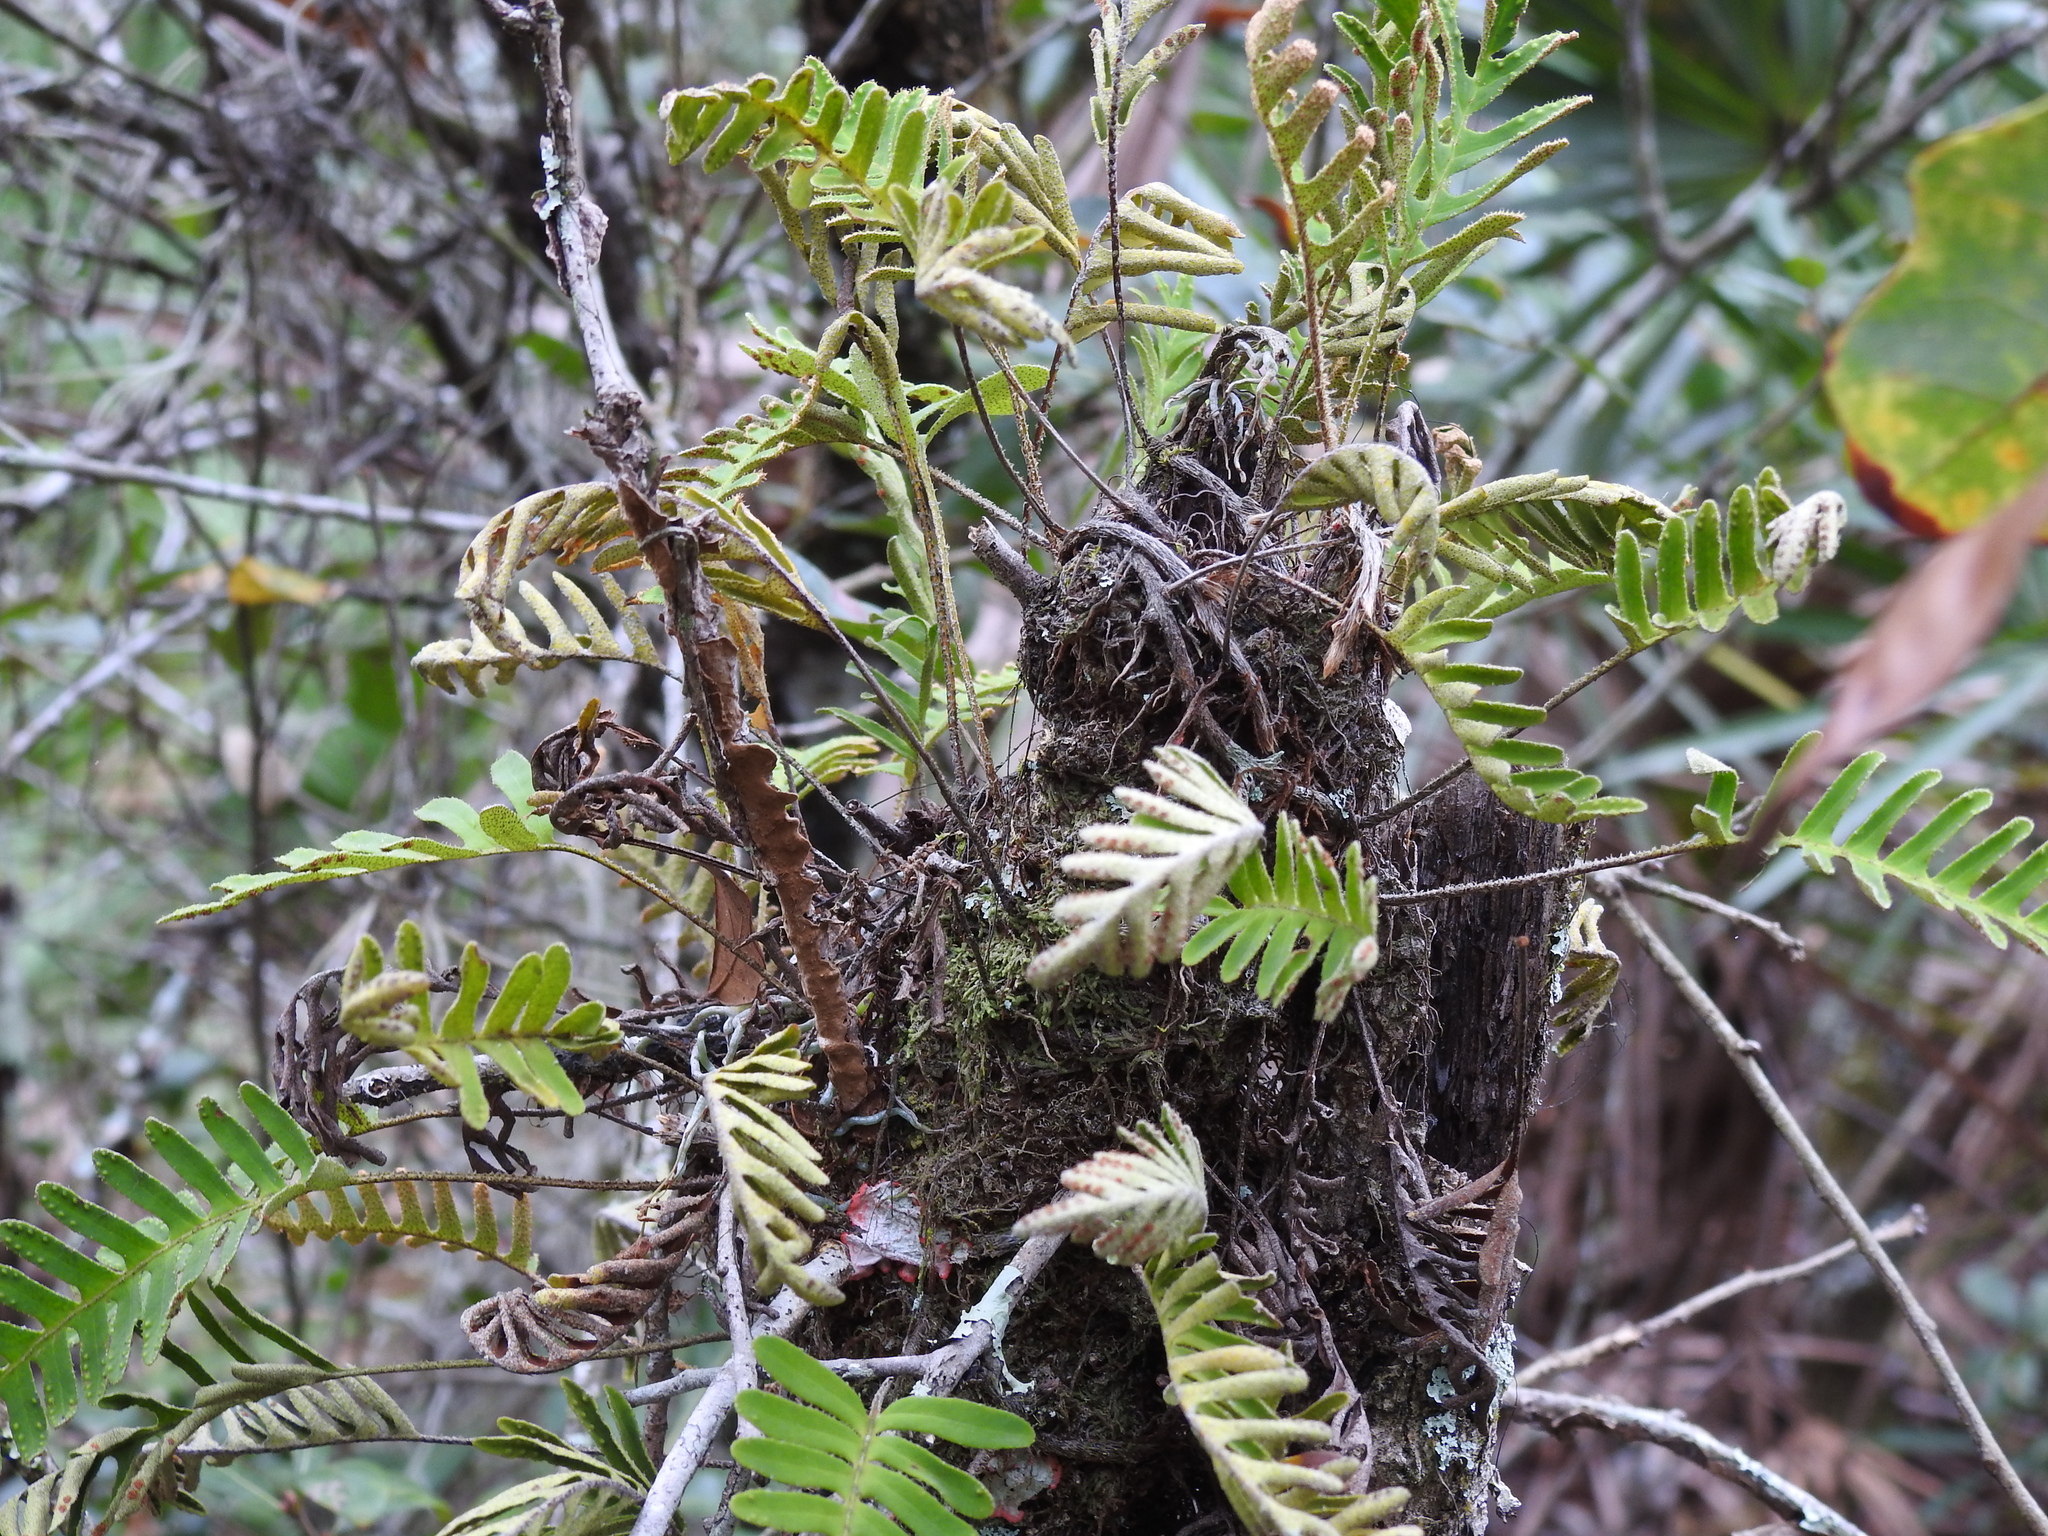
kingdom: Plantae
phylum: Tracheophyta
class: Polypodiopsida
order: Polypodiales
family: Polypodiaceae
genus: Pleopeltis
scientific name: Pleopeltis michauxiana
